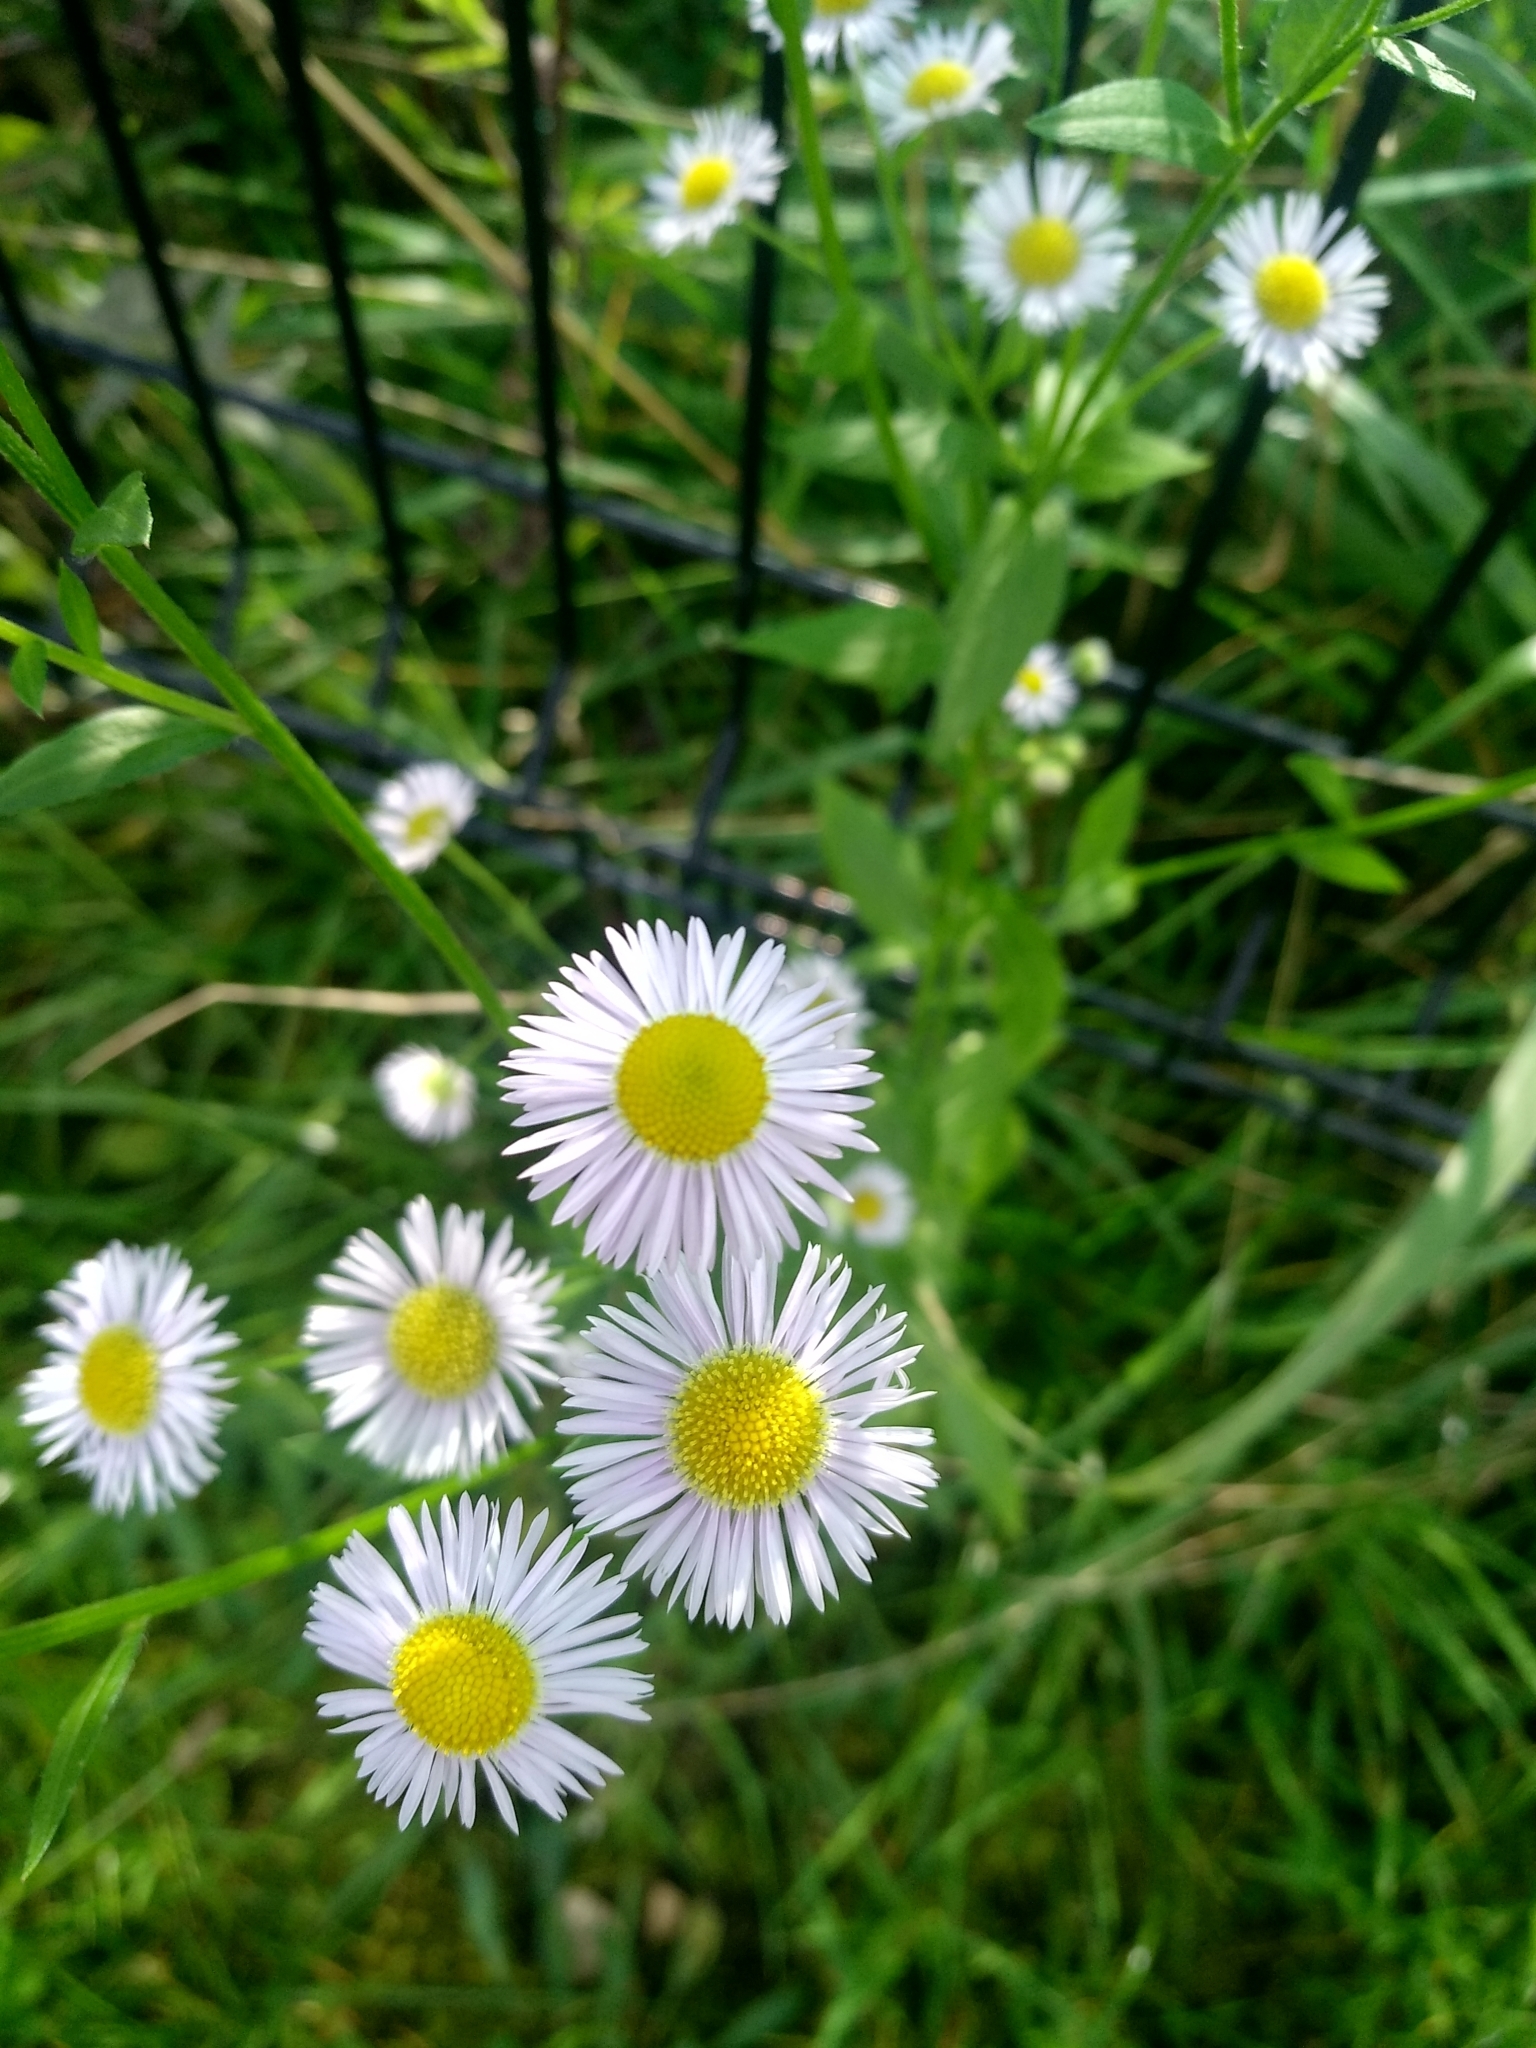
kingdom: Plantae
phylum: Tracheophyta
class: Magnoliopsida
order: Asterales
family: Asteraceae
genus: Erigeron
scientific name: Erigeron annuus
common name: Tall fleabane
